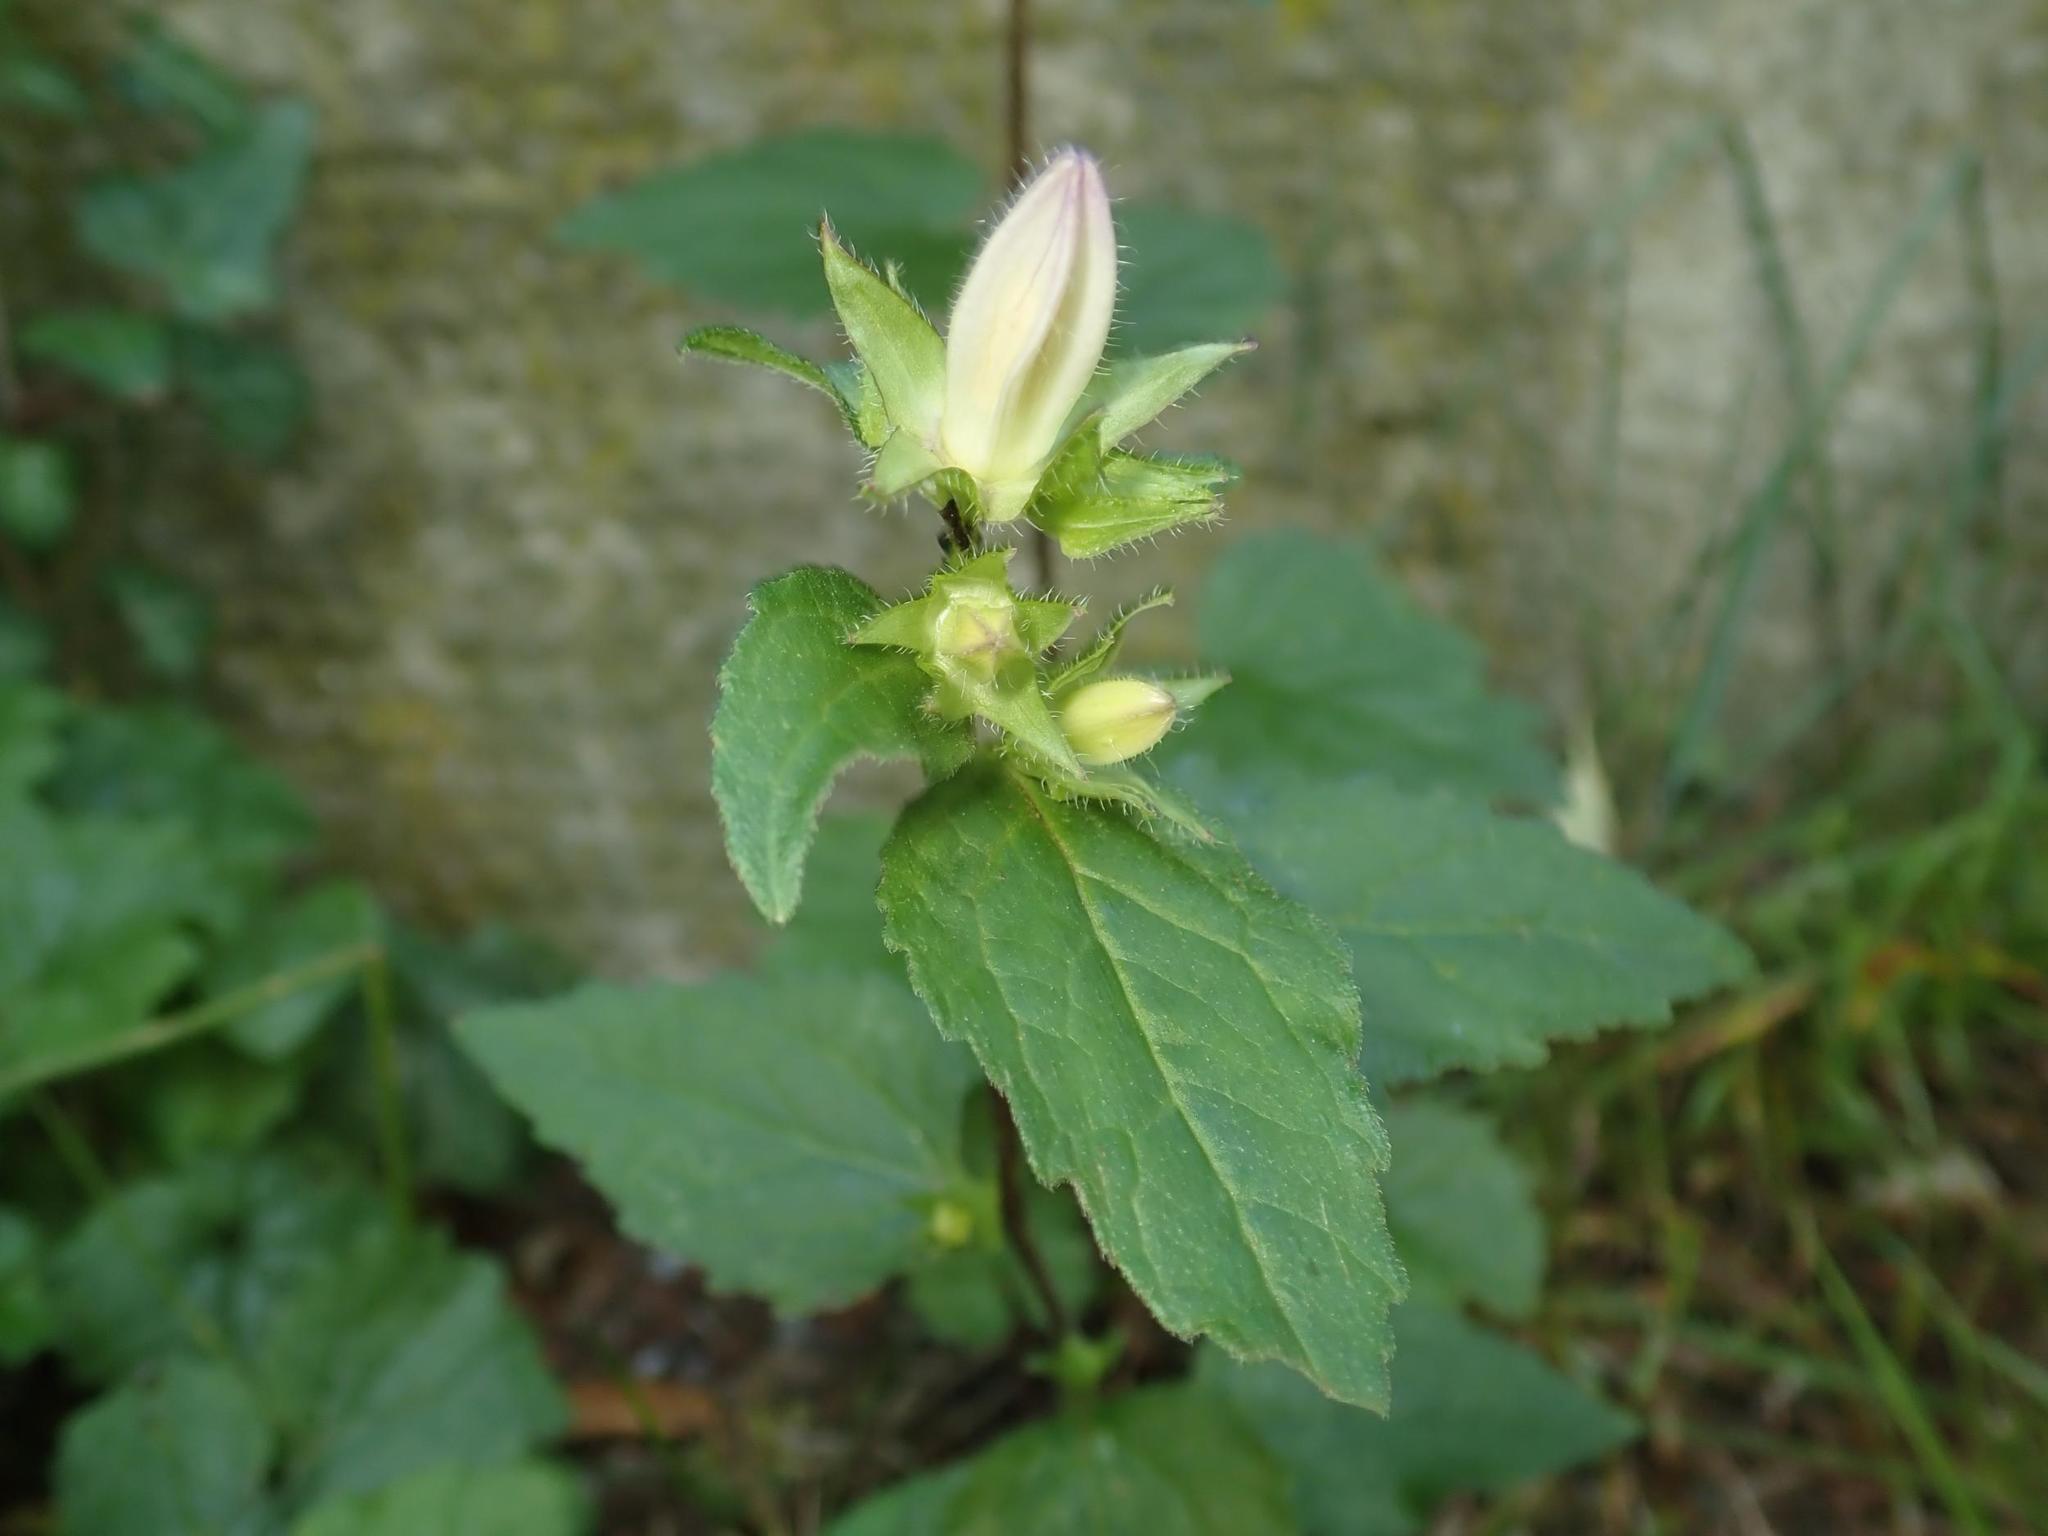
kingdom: Plantae
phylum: Tracheophyta
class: Magnoliopsida
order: Asterales
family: Campanulaceae
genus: Campanula
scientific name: Campanula trachelium
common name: Nettle-leaved bellflower
